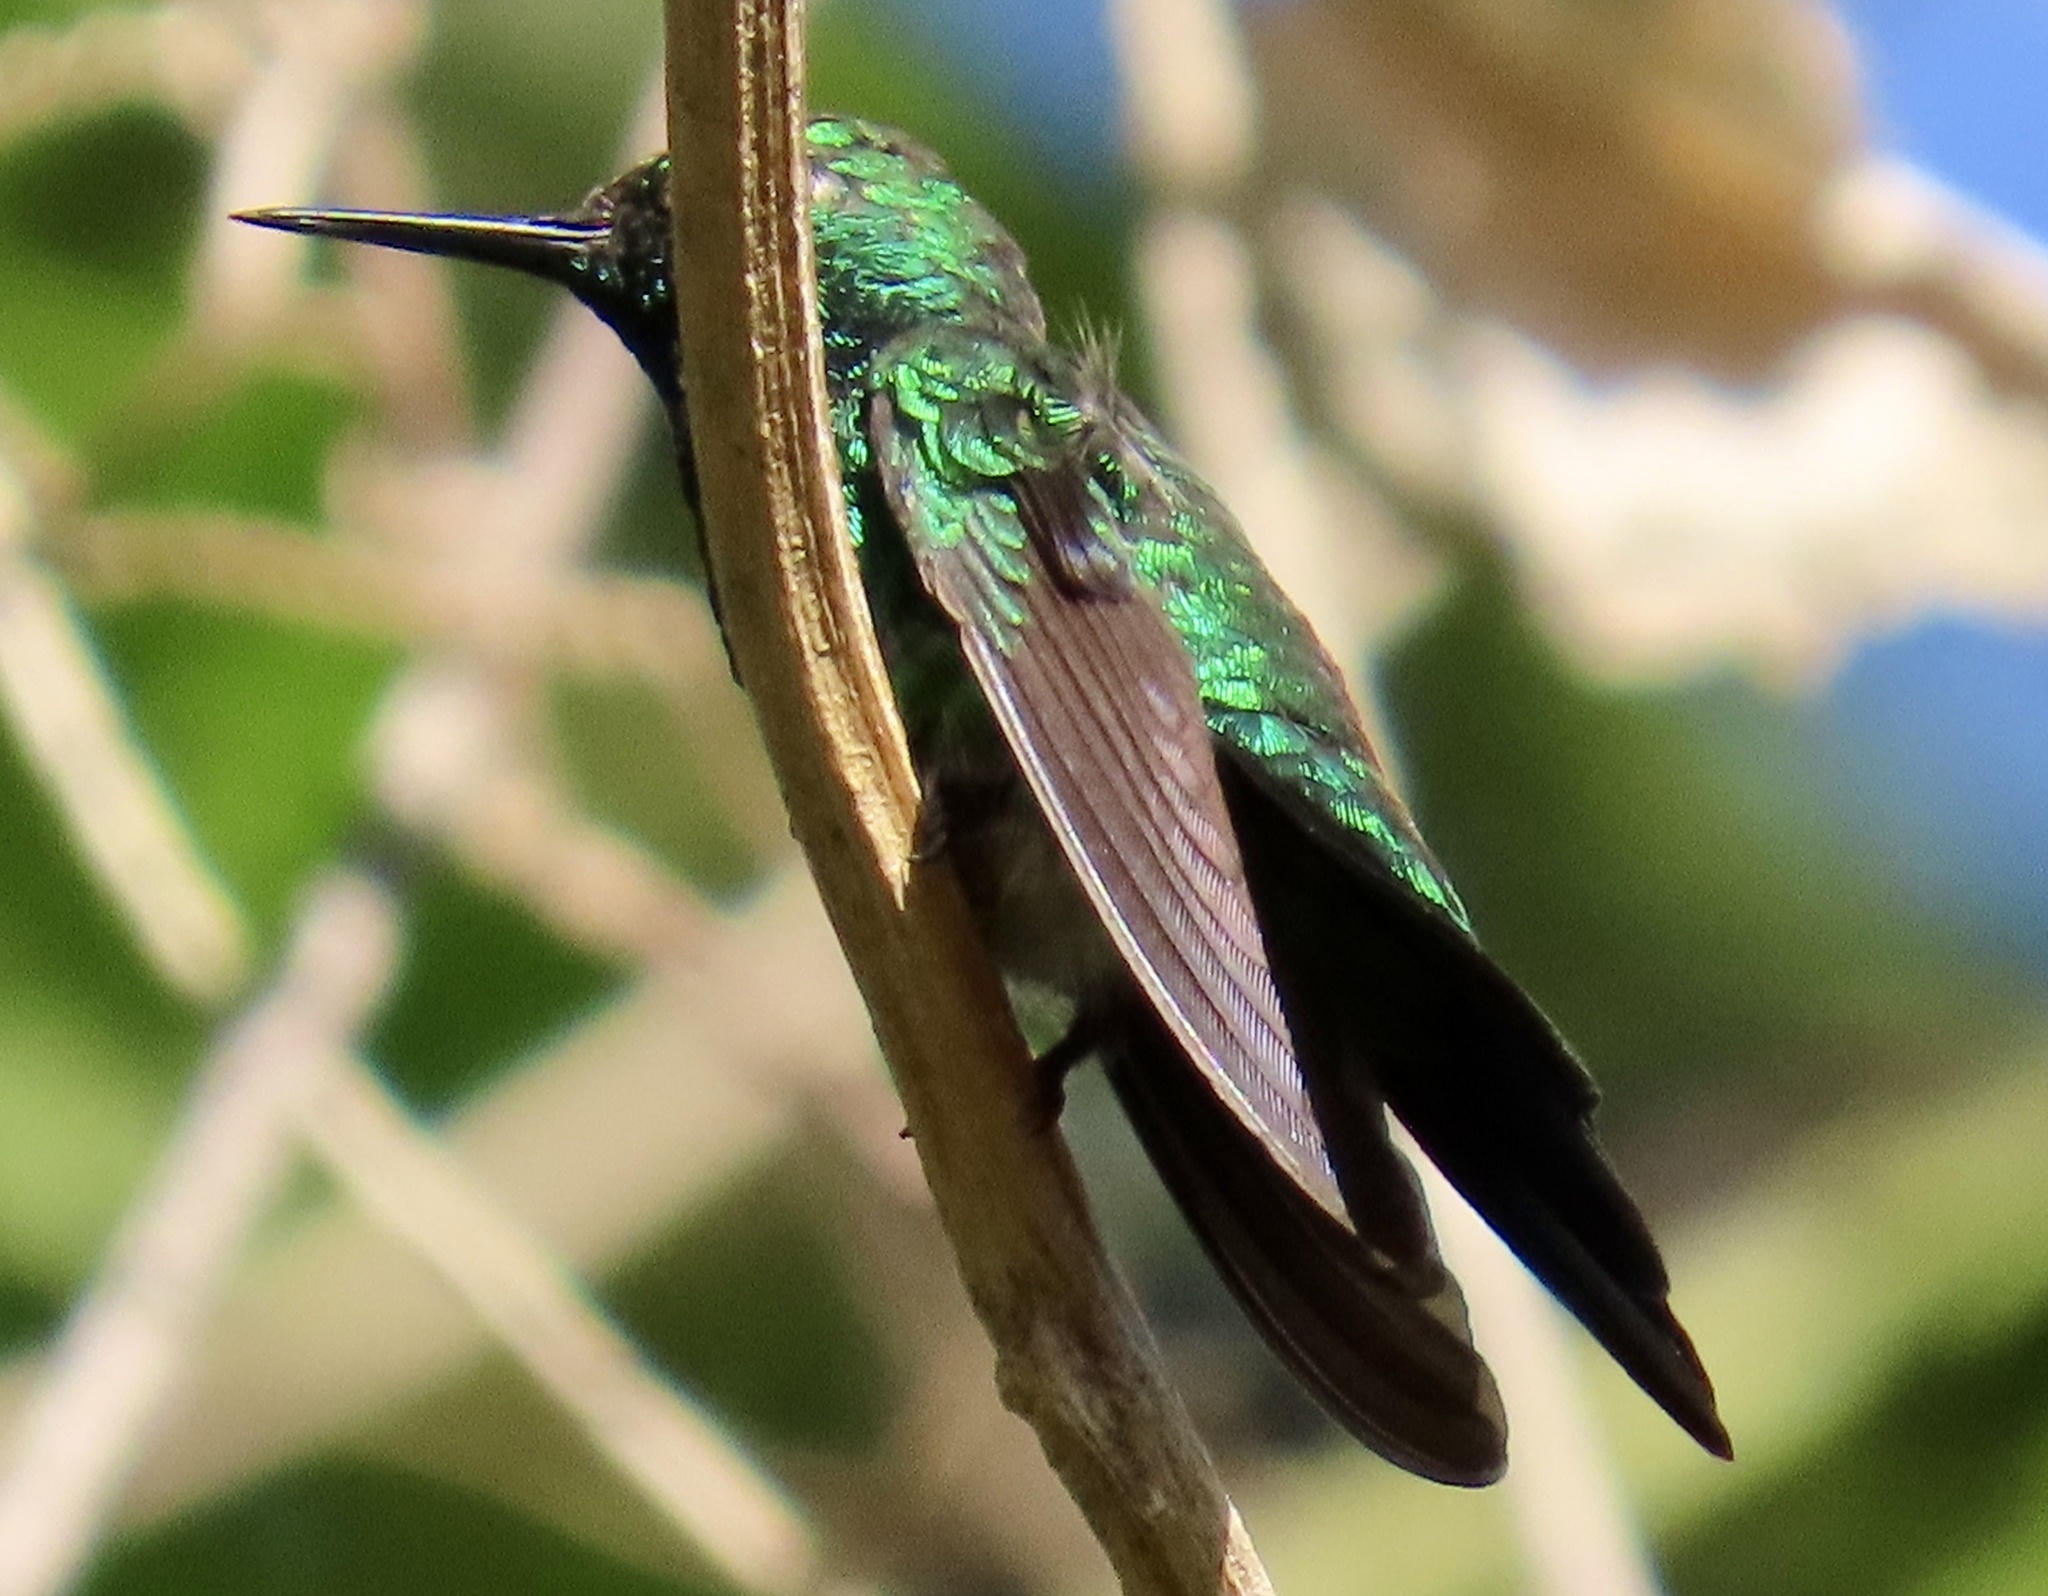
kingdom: Animalia
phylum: Chordata
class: Aves
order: Apodiformes
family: Trochilidae
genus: Chlorostilbon
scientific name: Chlorostilbon assimilis
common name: Garden emerald
